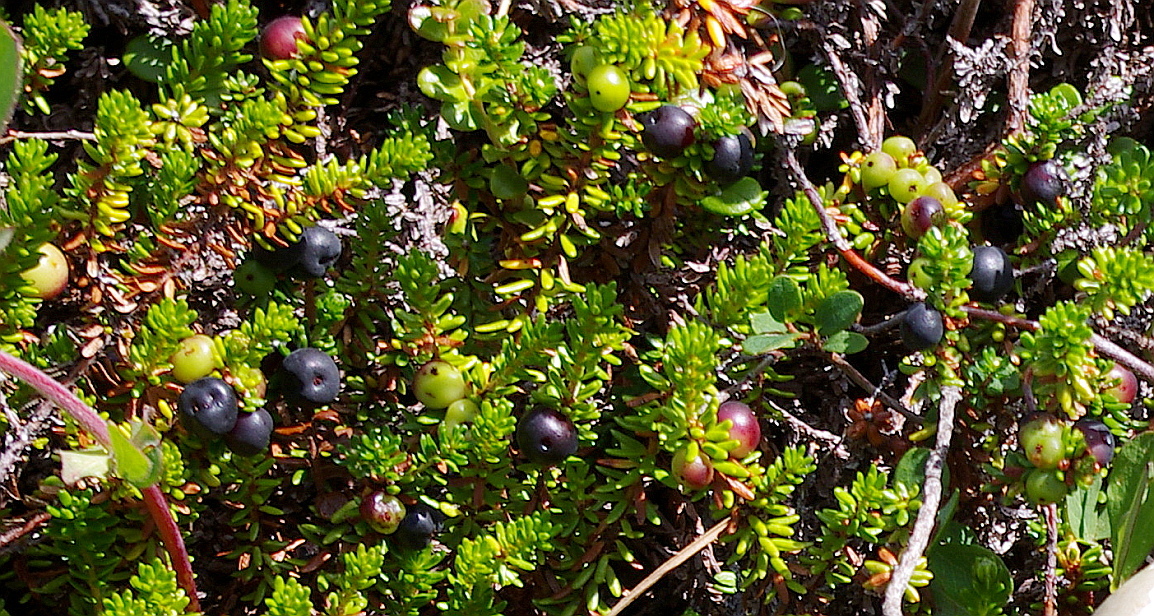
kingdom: Plantae
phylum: Tracheophyta
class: Magnoliopsida
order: Ericales
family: Ericaceae
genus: Empetrum
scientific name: Empetrum nigrum
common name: Black crowberry
